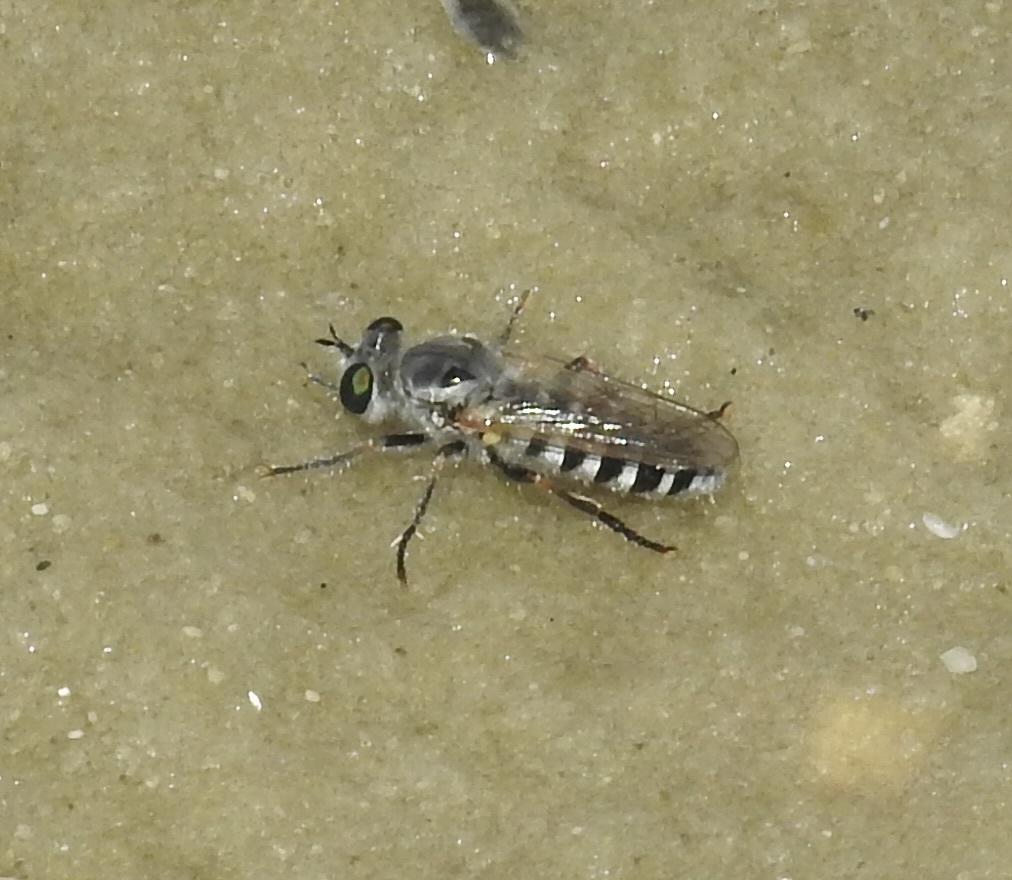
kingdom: Animalia
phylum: Arthropoda
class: Insecta
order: Diptera
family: Asilidae
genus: Laphystia
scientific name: Laphystia texensis
